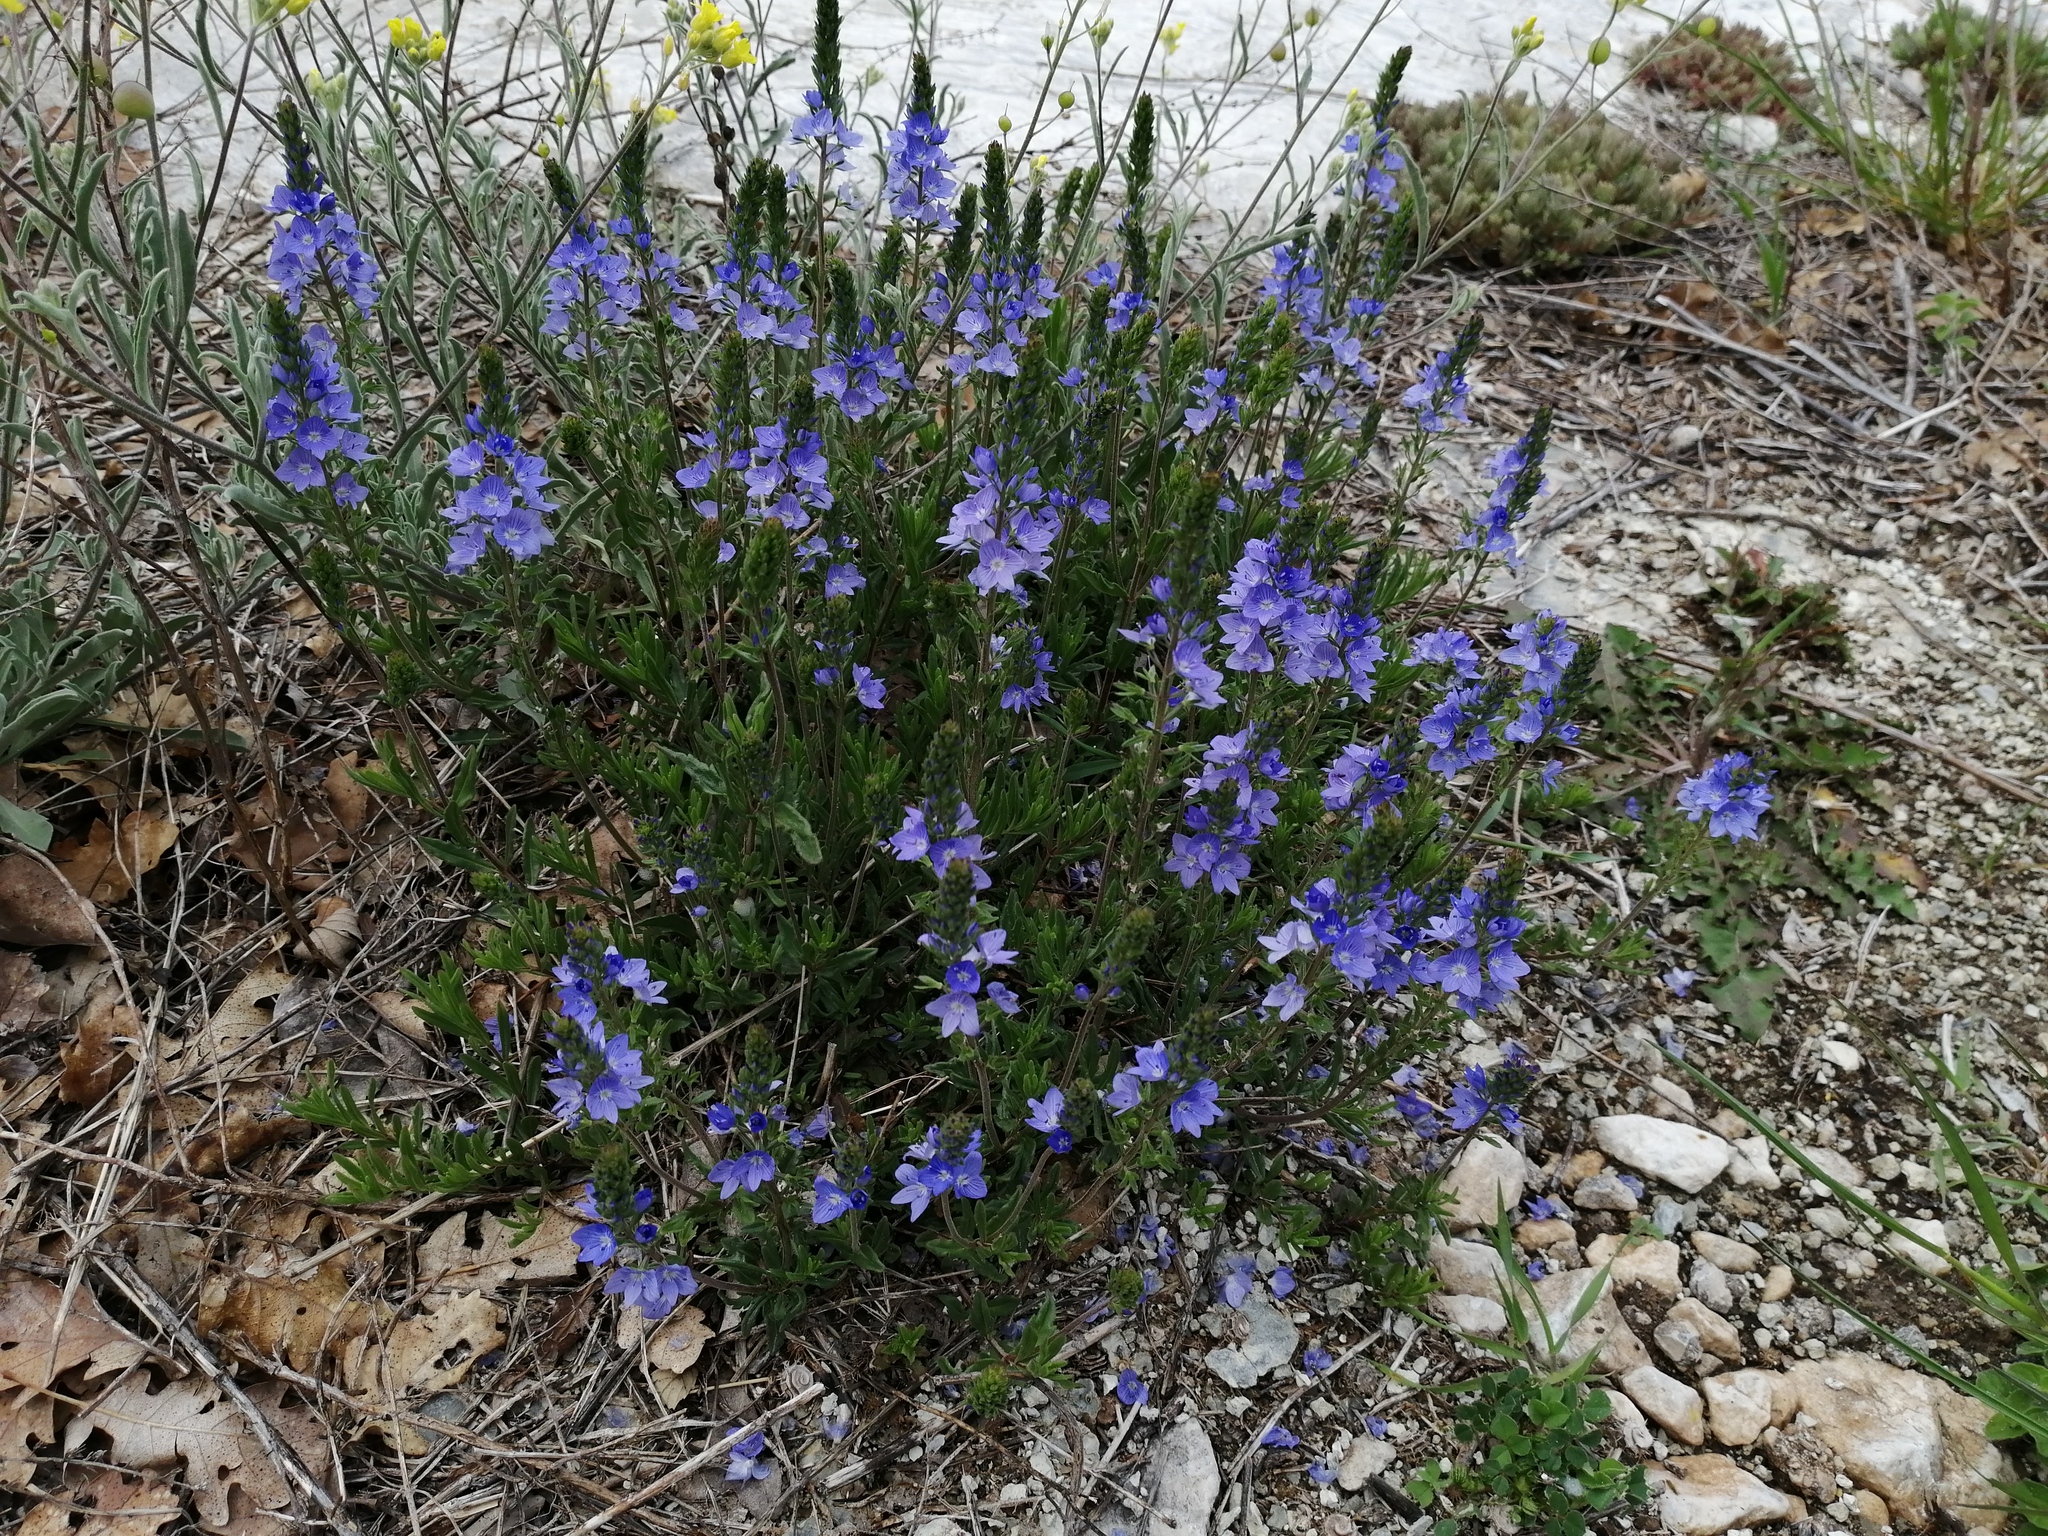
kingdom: Plantae
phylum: Tracheophyta
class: Magnoliopsida
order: Lamiales
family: Plantaginaceae
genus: Veronica
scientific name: Veronica orbiculata
